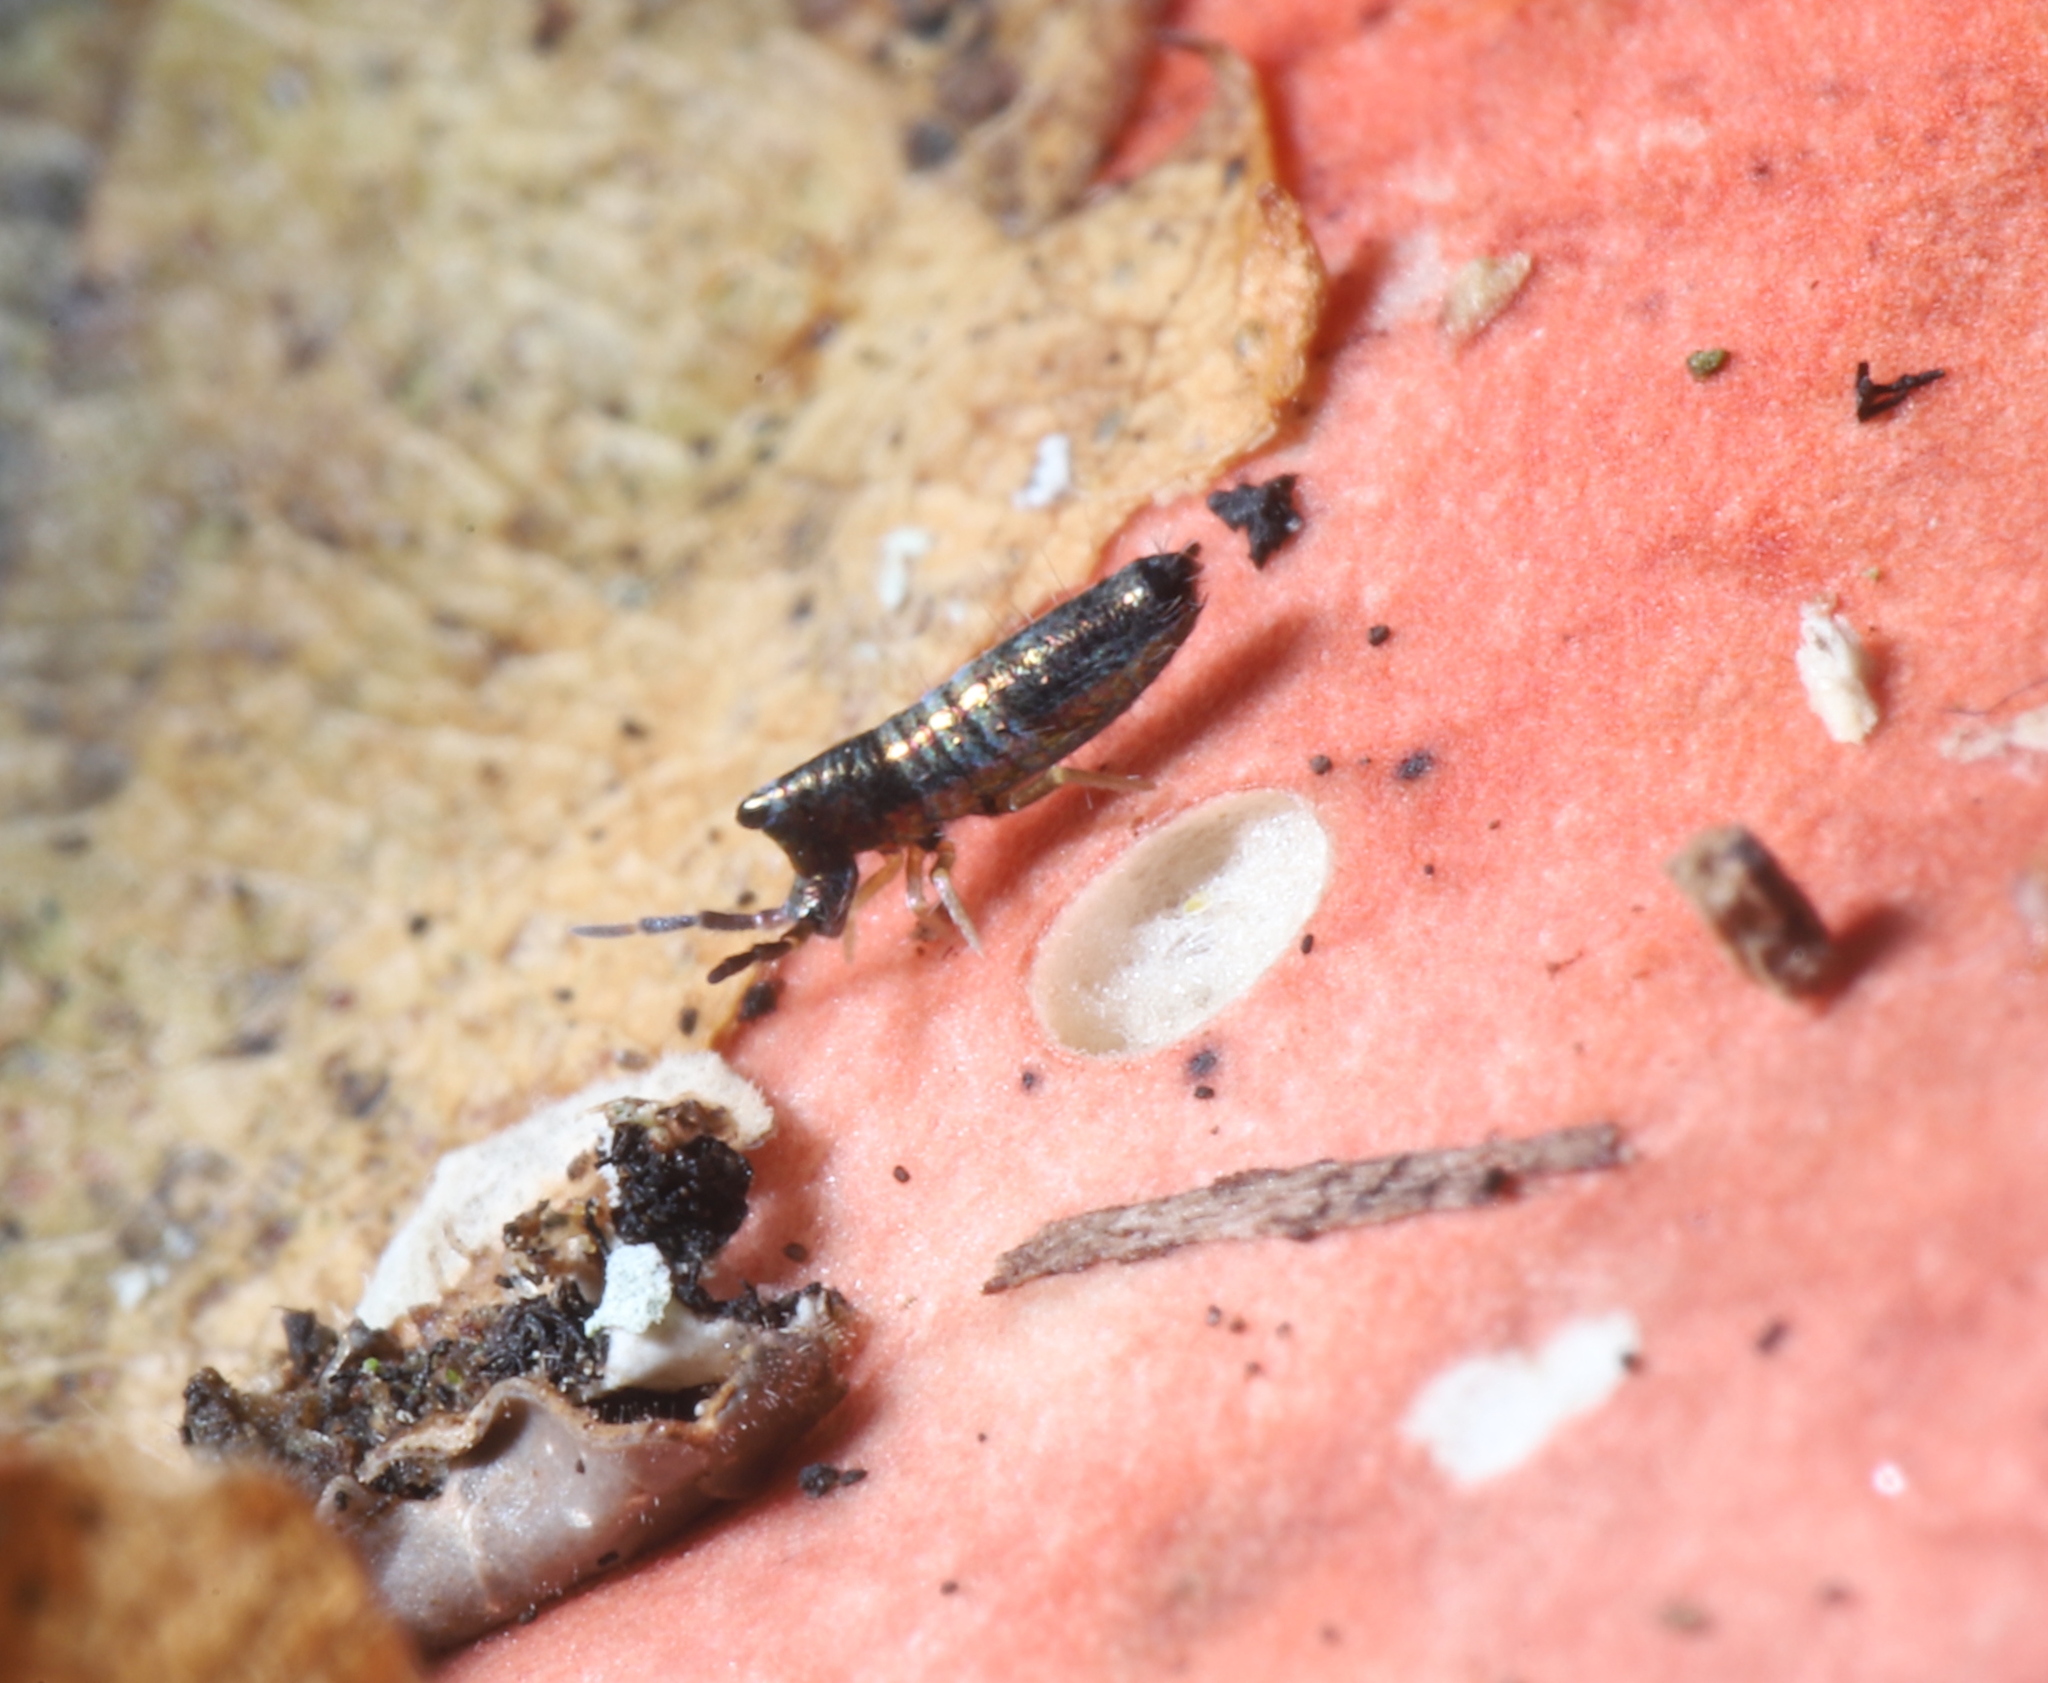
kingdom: Animalia
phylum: Arthropoda
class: Collembola
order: Entomobryomorpha
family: Entomobryidae
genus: Lepidocyrtus
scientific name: Lepidocyrtus paradoxus
